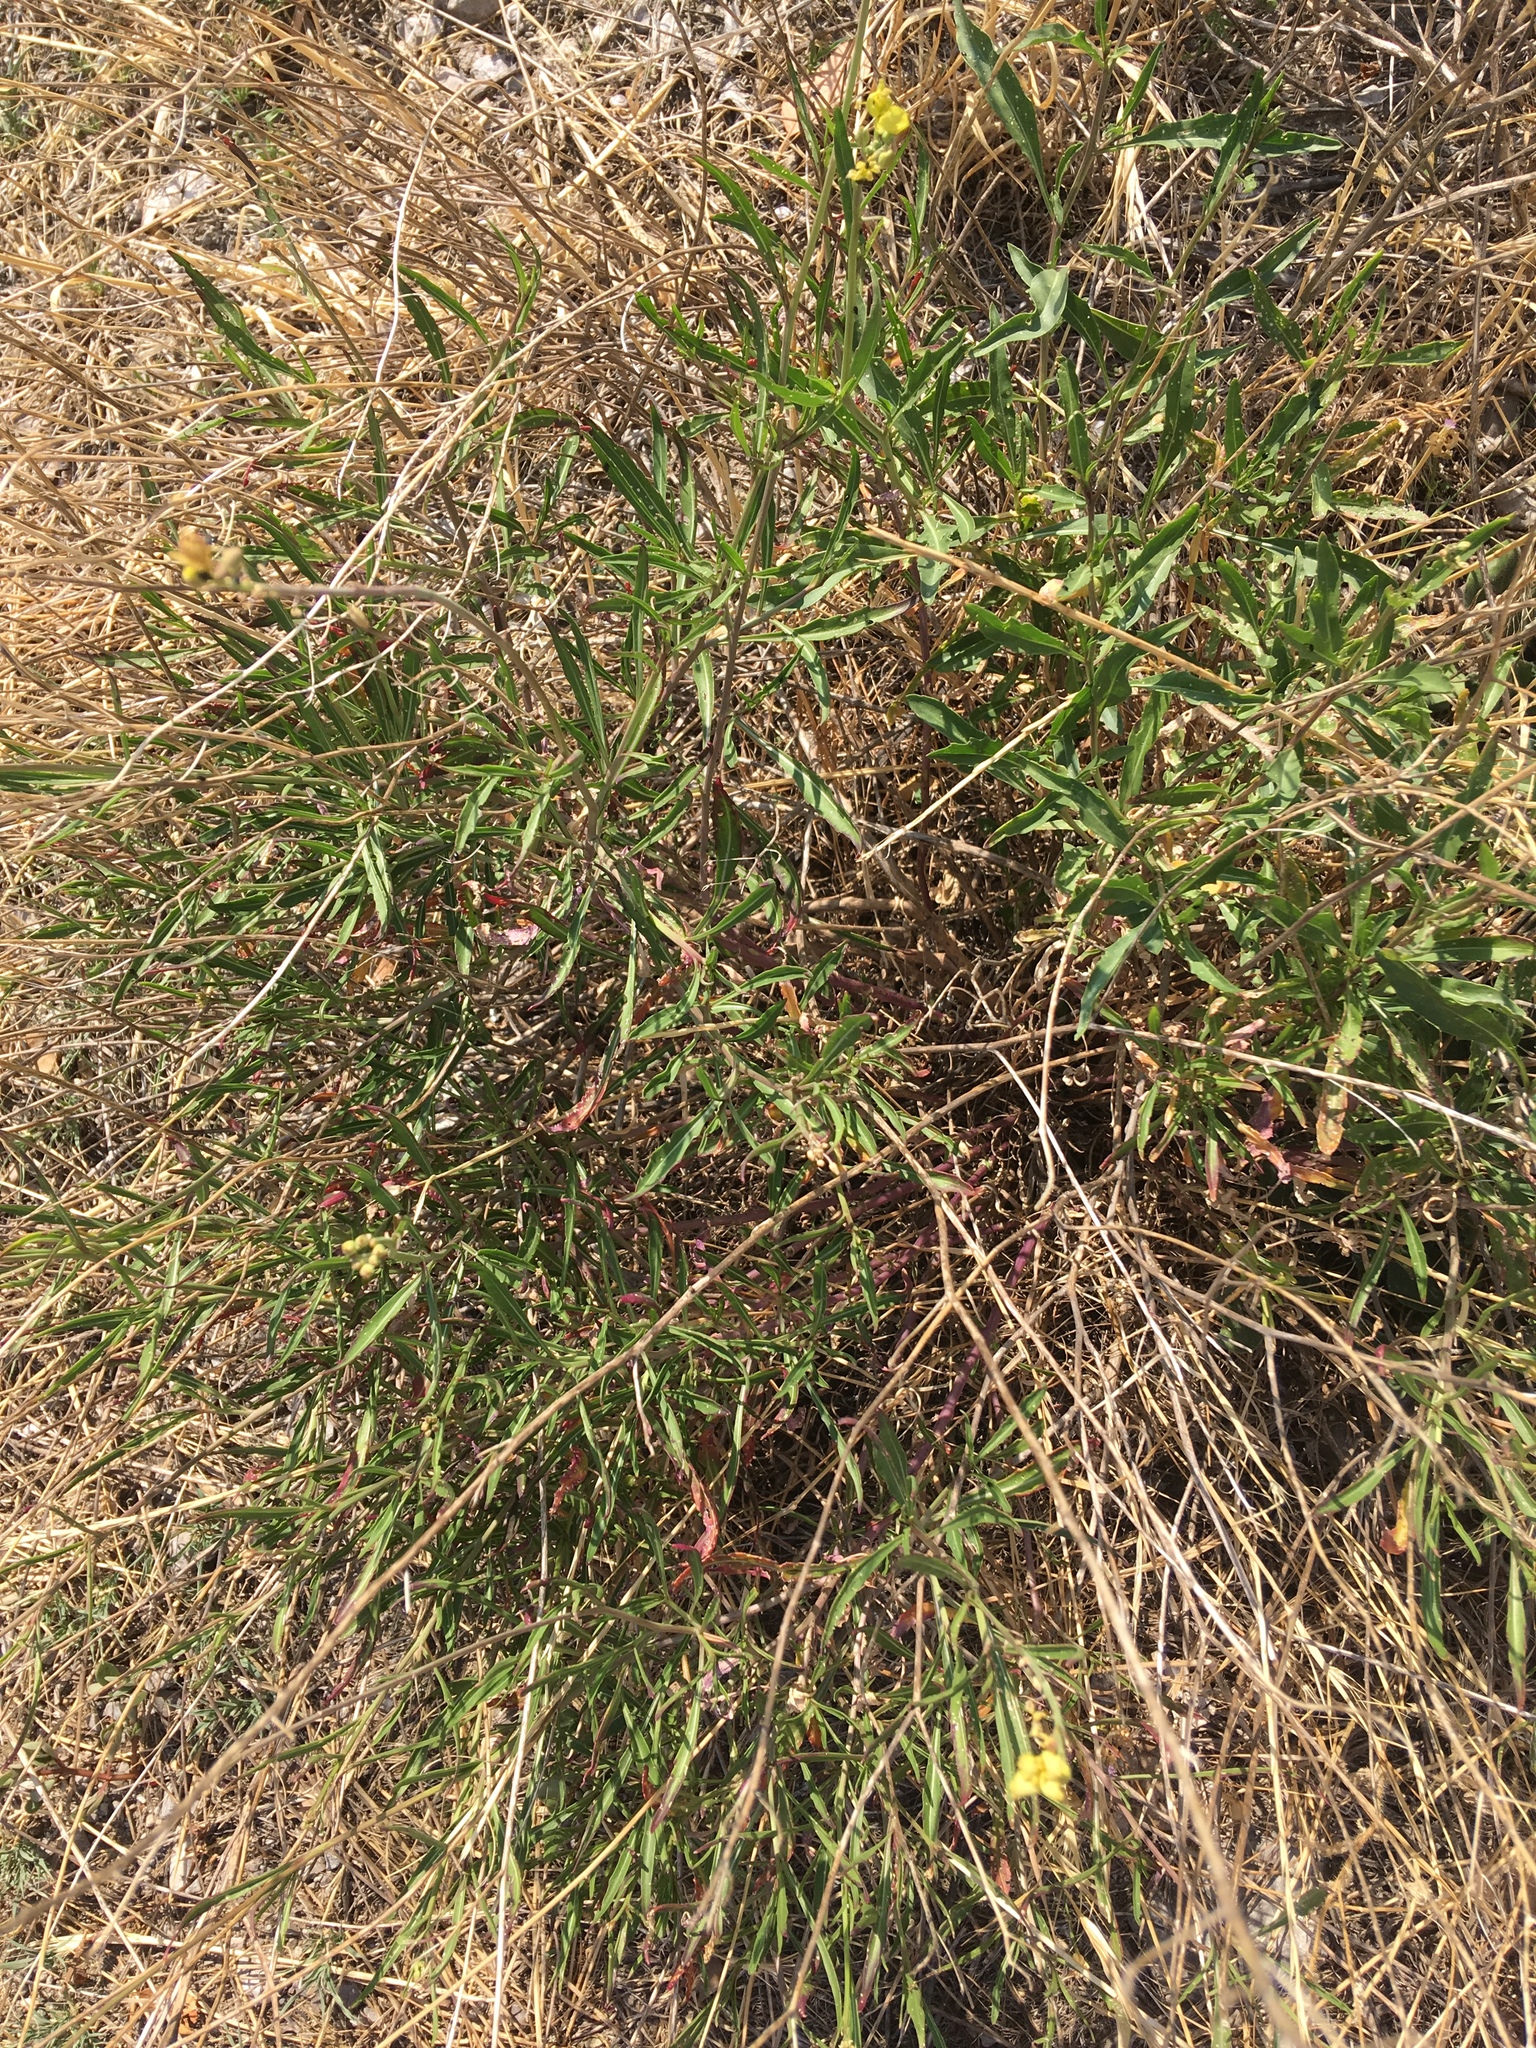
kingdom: Plantae
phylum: Tracheophyta
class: Magnoliopsida
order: Brassicales
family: Brassicaceae
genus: Diplotaxis
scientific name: Diplotaxis tenuifolia
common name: Perennial wall-rocket
